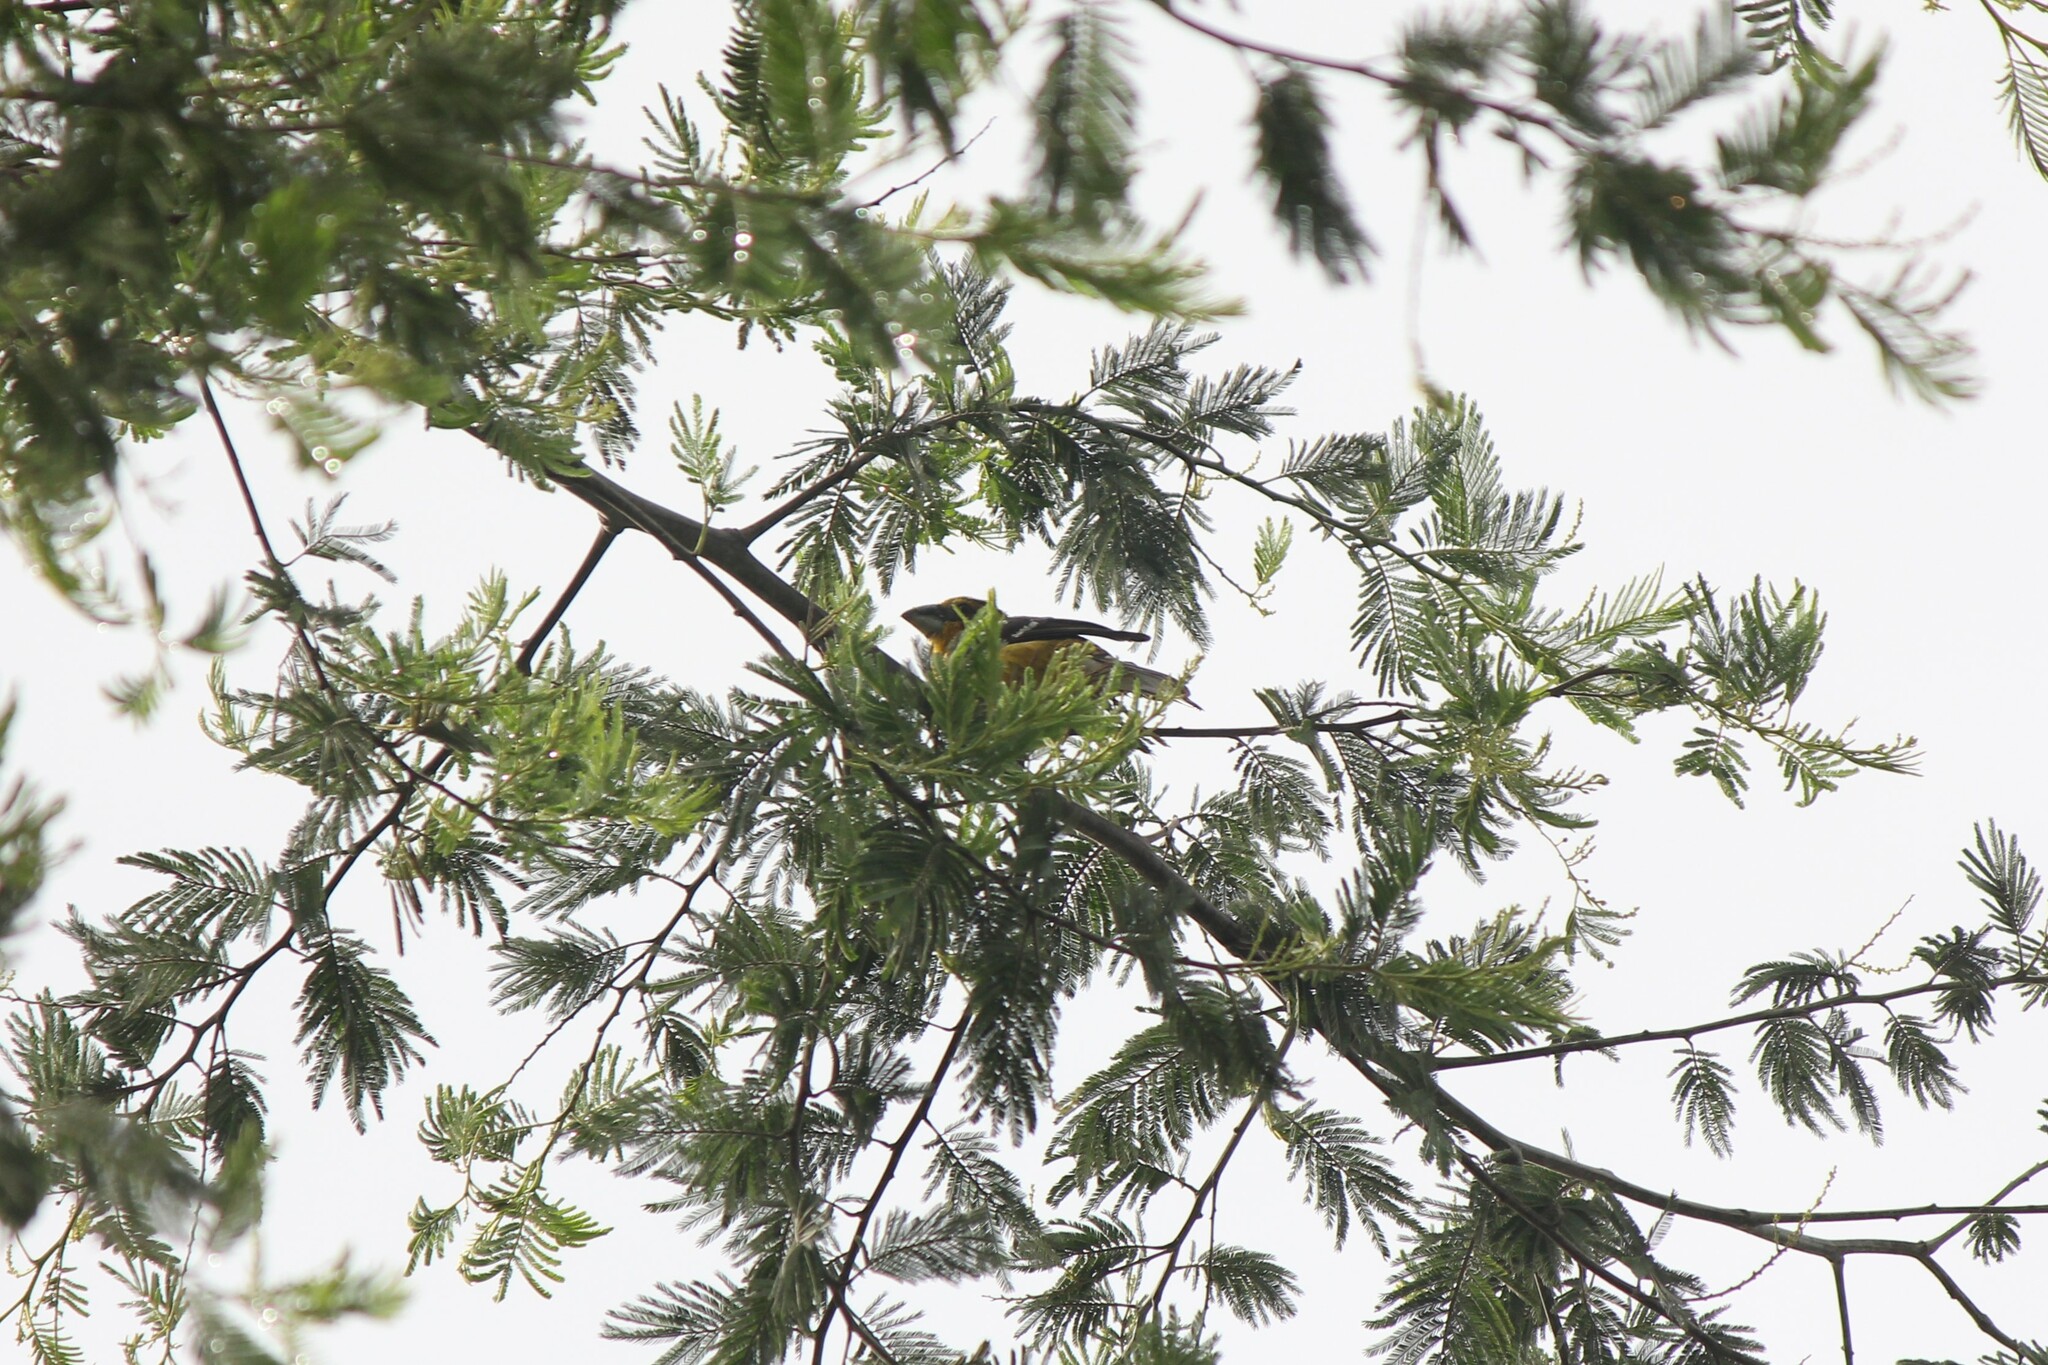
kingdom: Animalia
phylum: Chordata
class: Aves
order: Passeriformes
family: Cardinalidae
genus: Pheucticus
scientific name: Pheucticus chrysogaster
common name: Golden grosbeak
